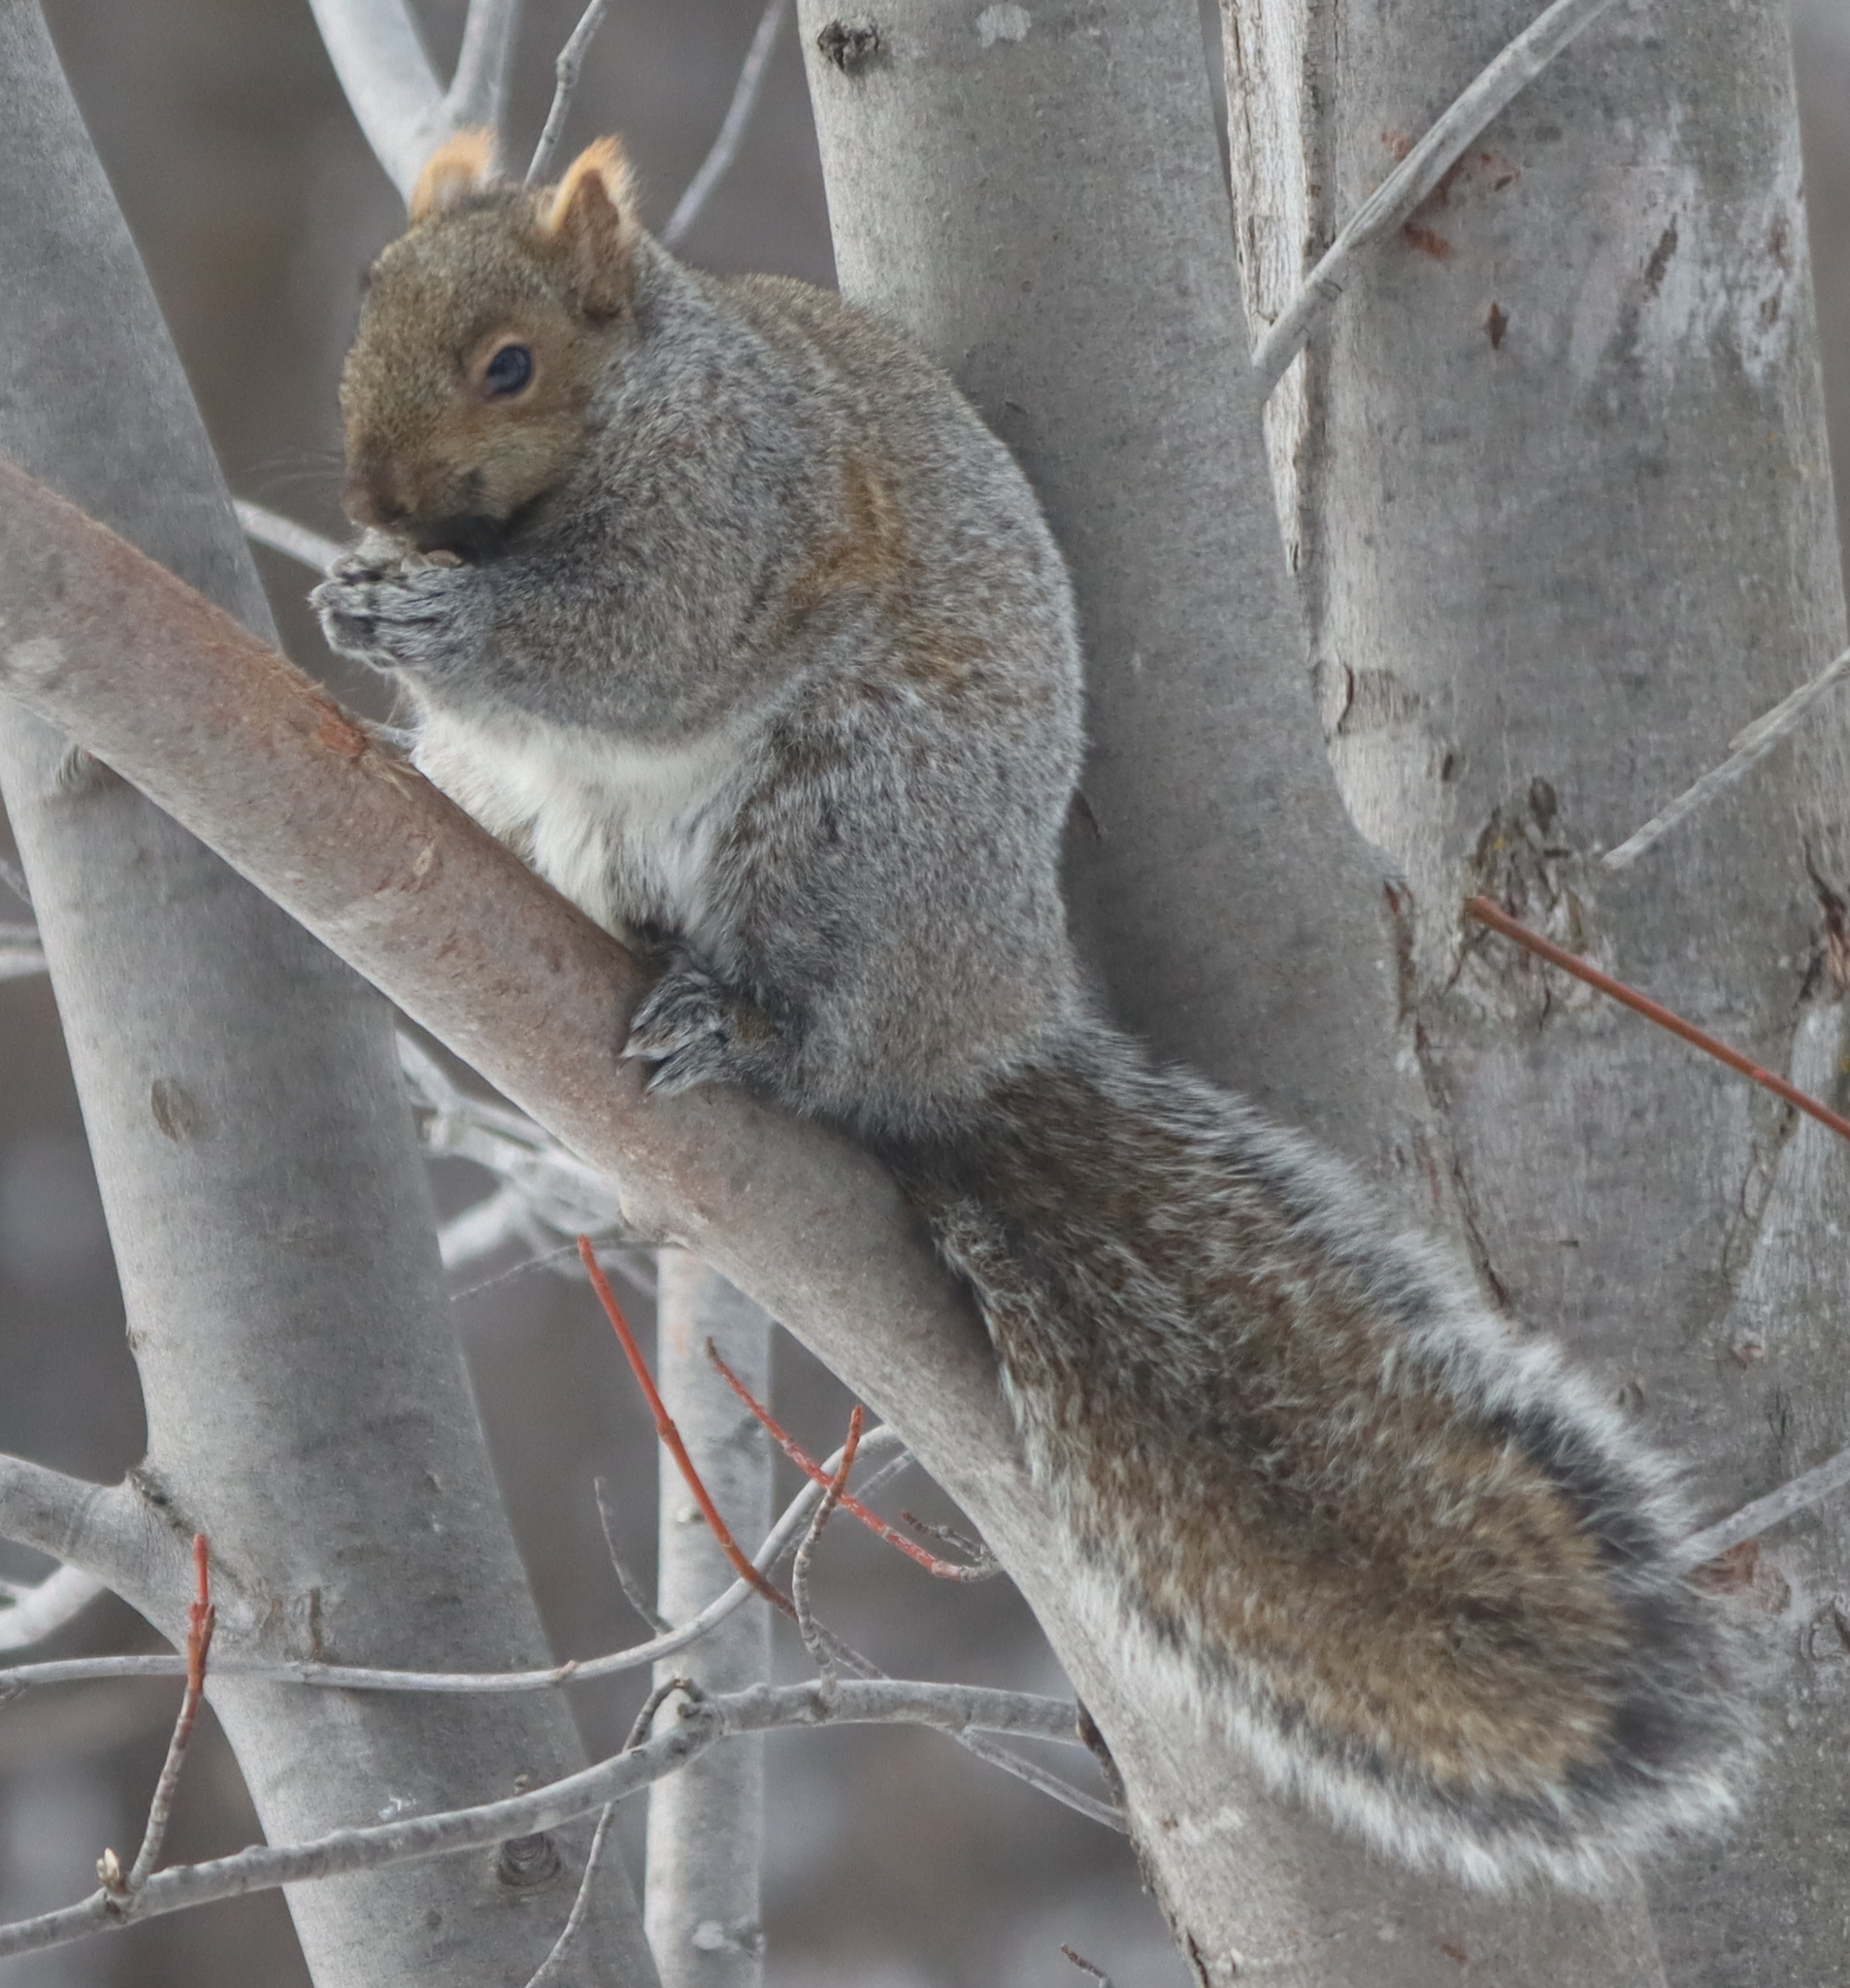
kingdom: Animalia
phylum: Chordata
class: Mammalia
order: Rodentia
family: Sciuridae
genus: Sciurus
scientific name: Sciurus carolinensis
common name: Eastern gray squirrel
